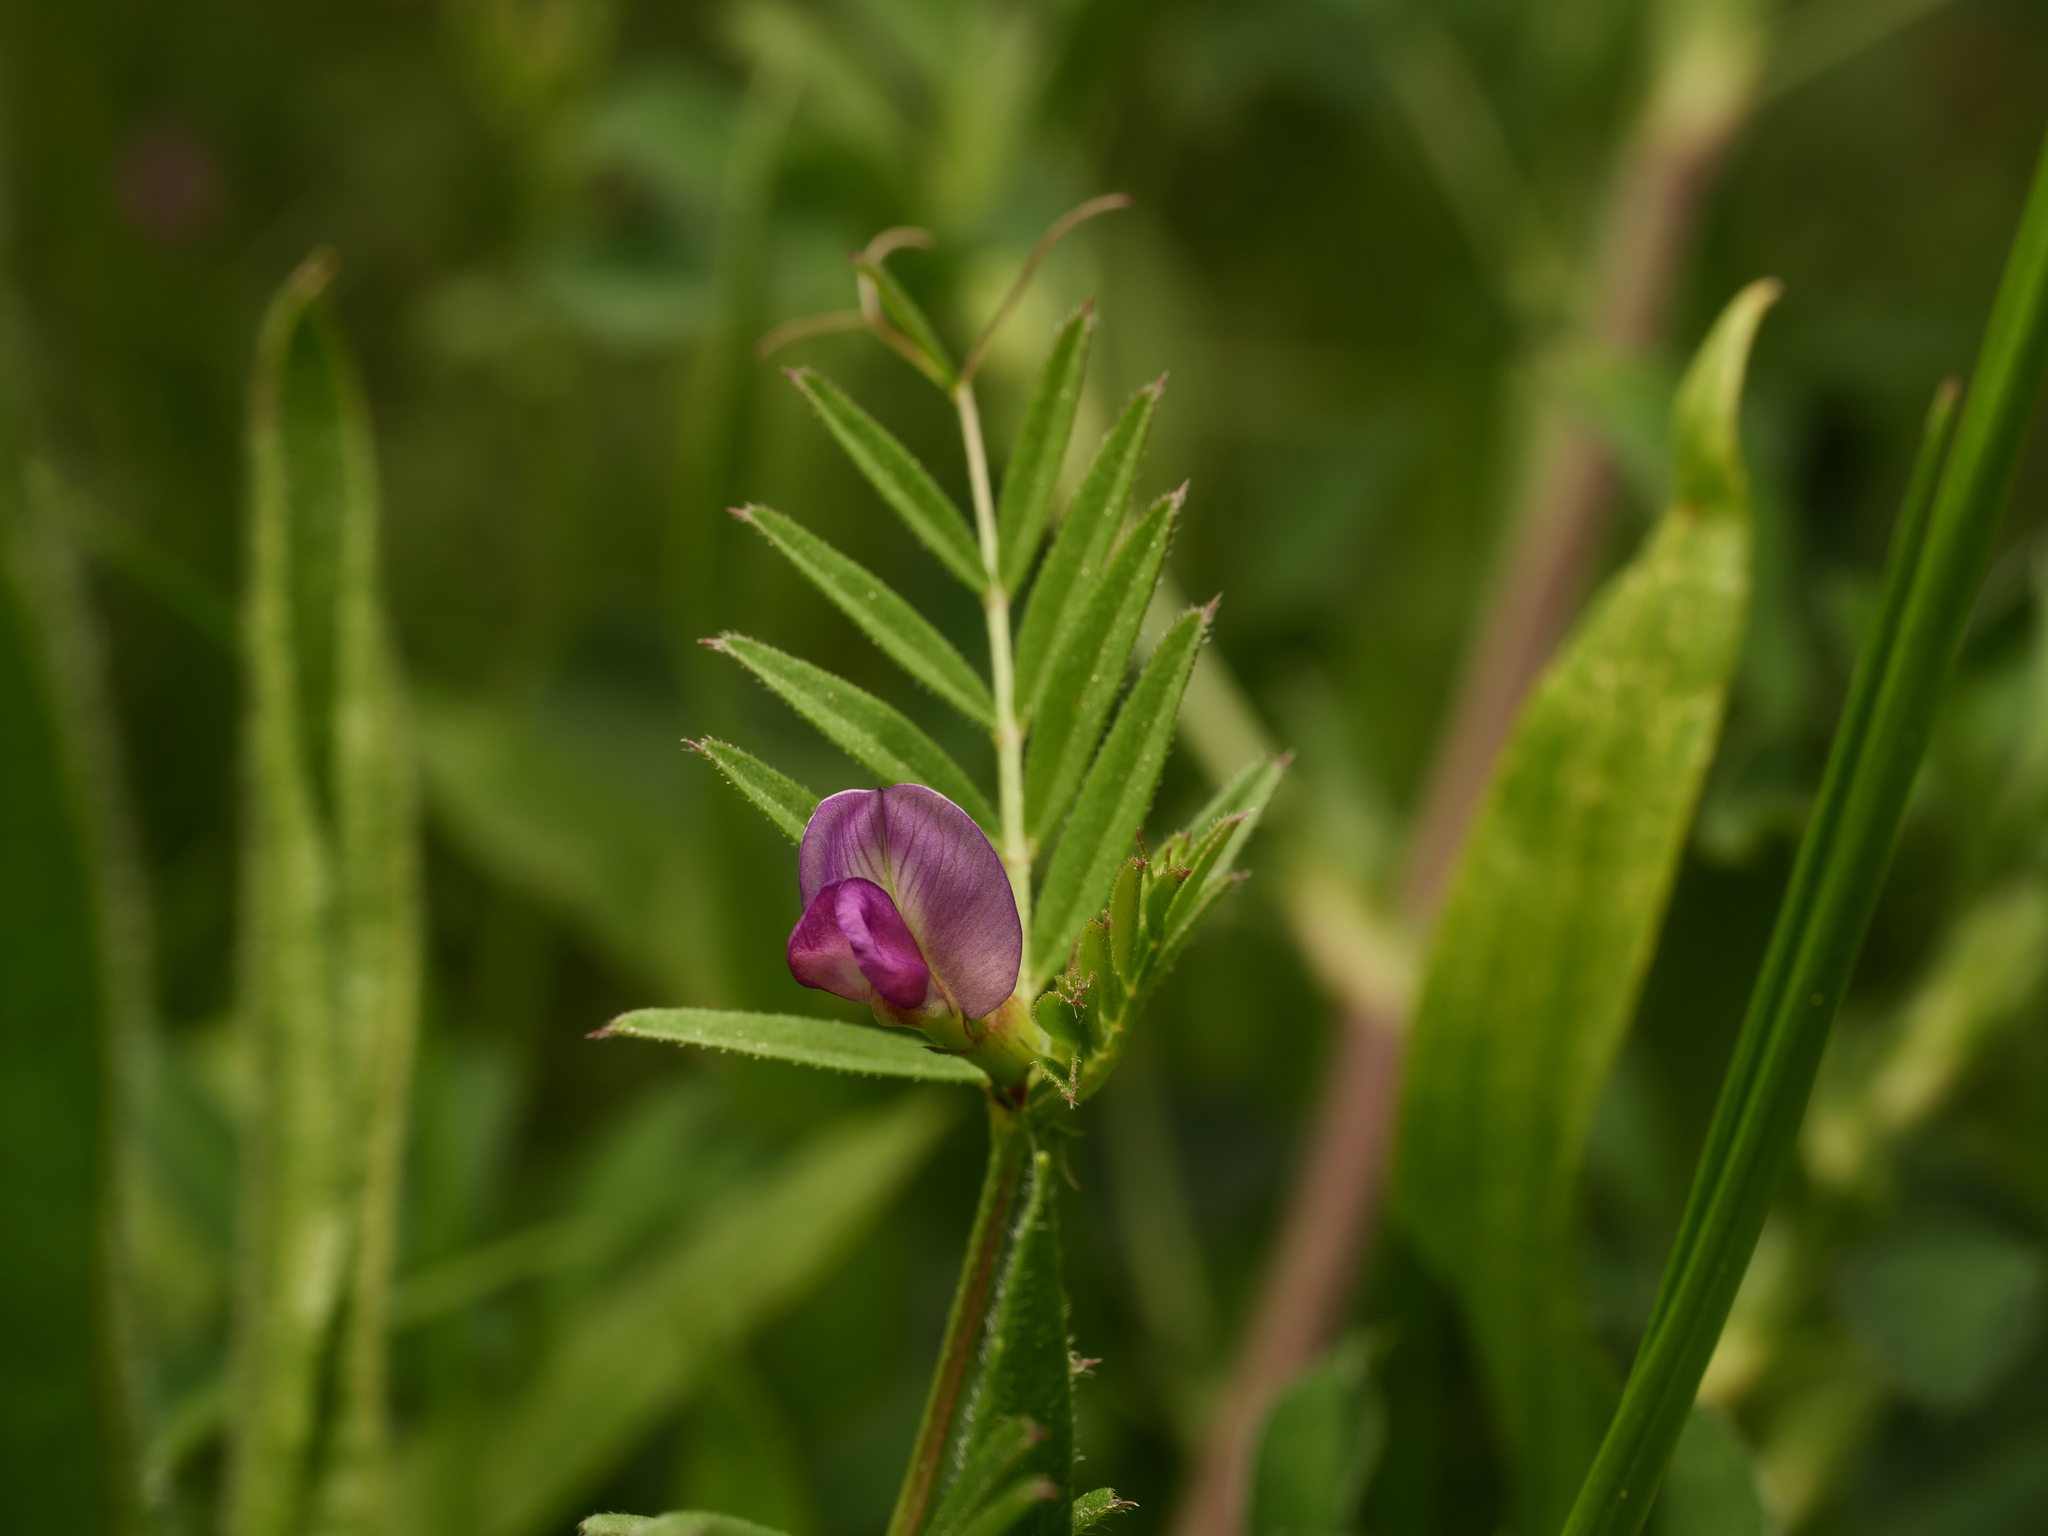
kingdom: Plantae
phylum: Tracheophyta
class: Magnoliopsida
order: Fabales
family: Fabaceae
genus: Vicia
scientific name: Vicia sativa
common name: Garden vetch
